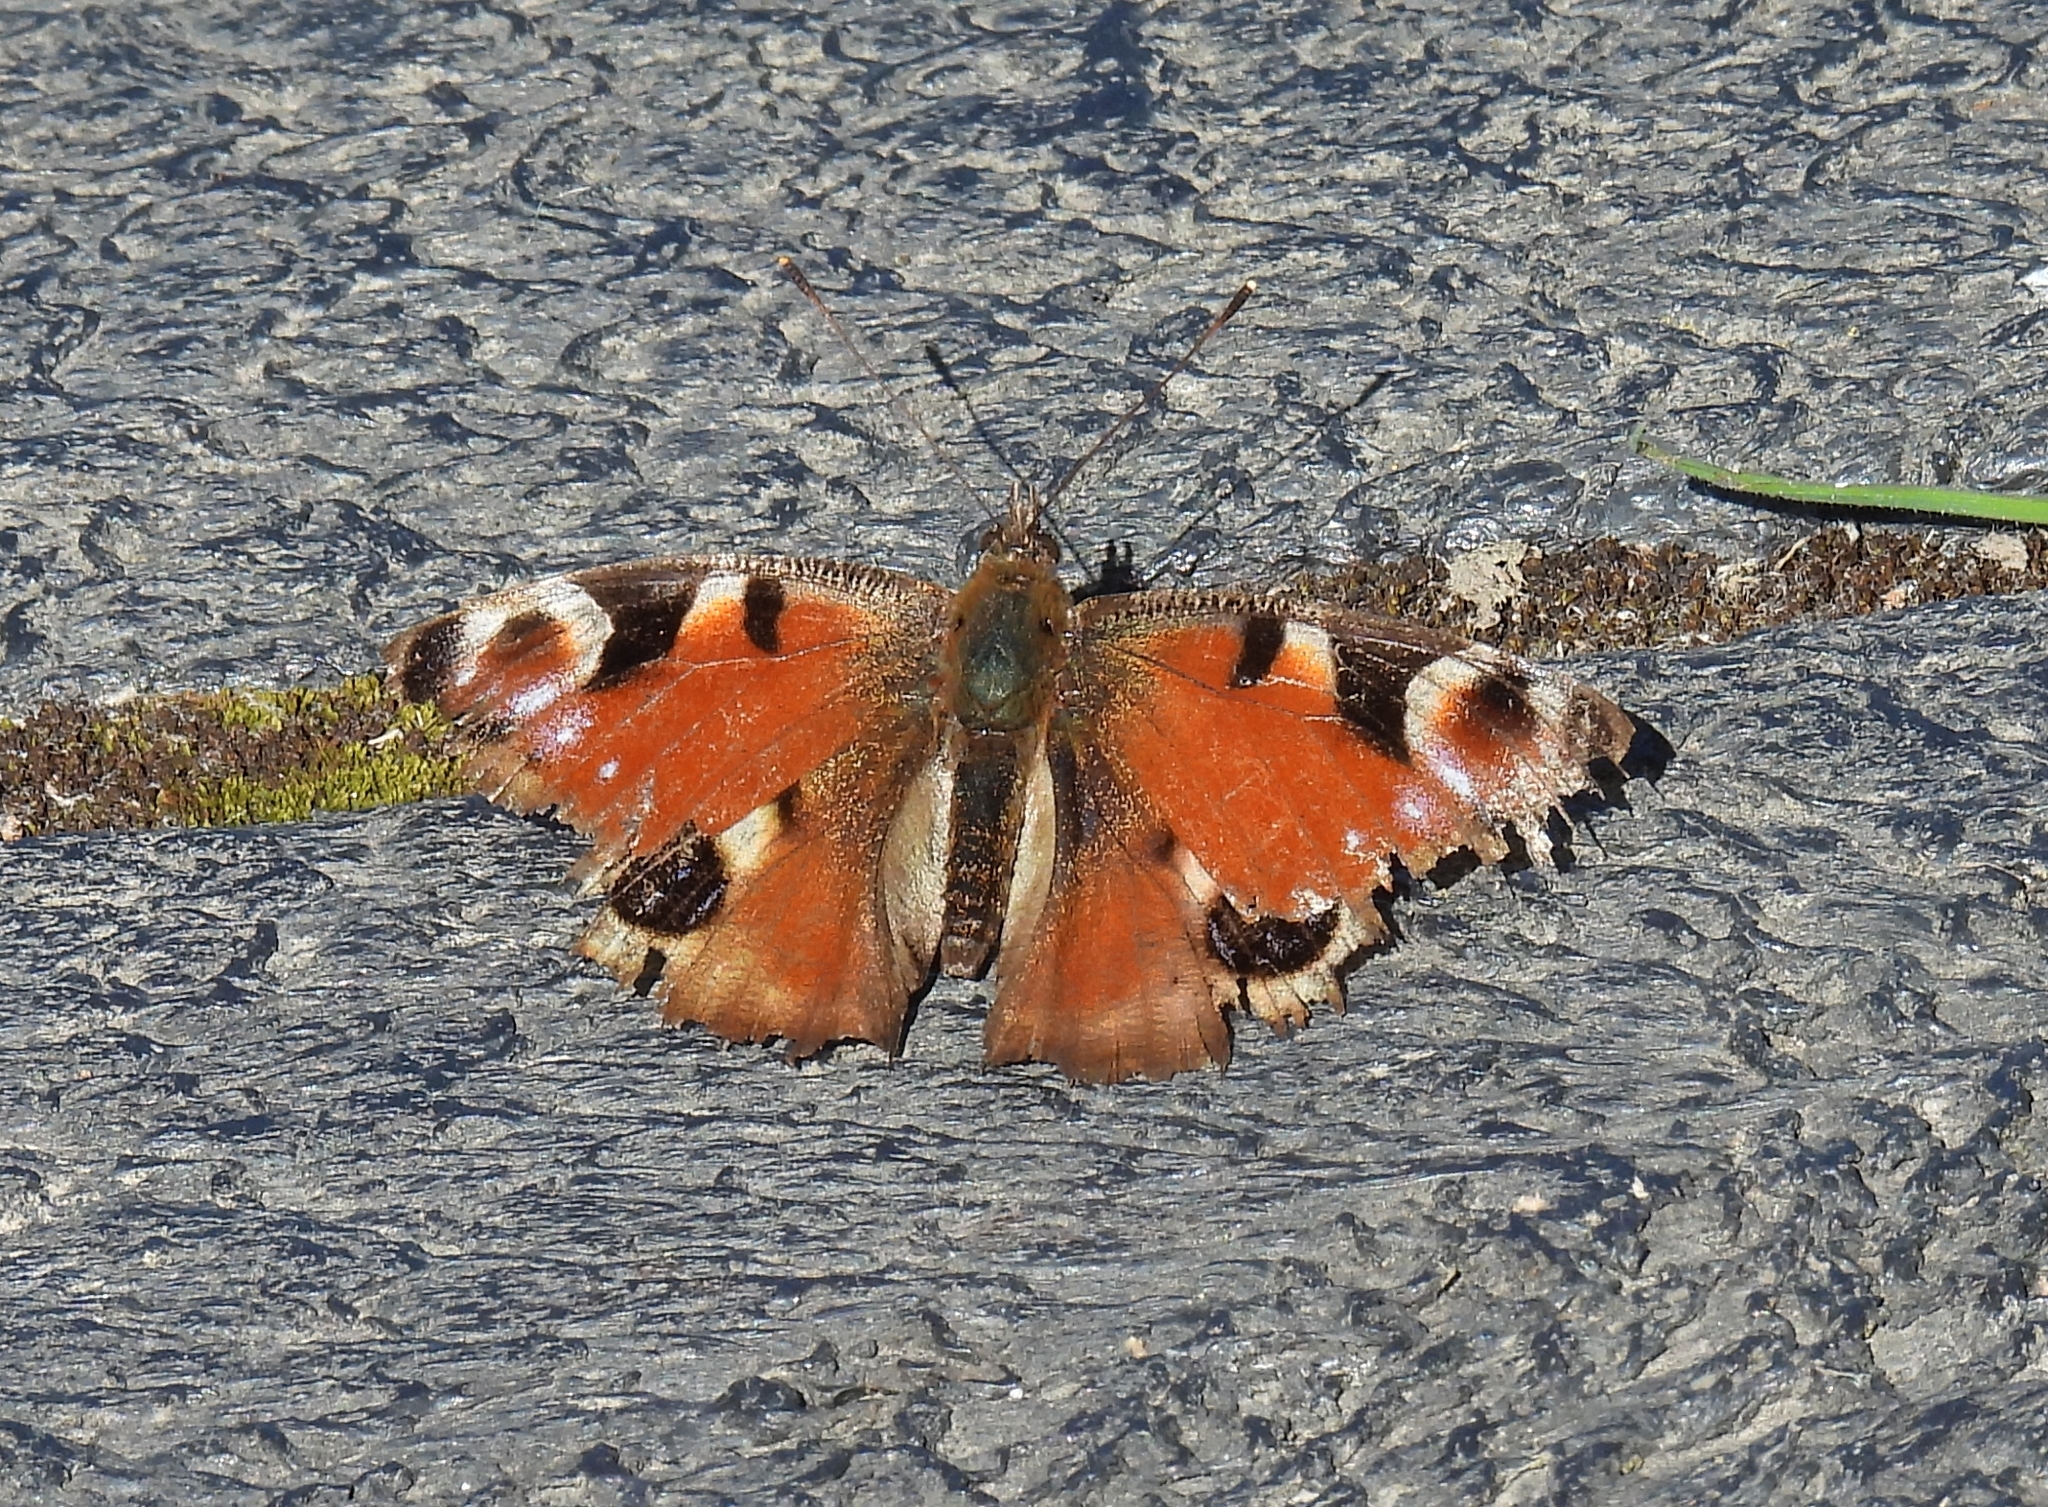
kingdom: Animalia
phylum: Arthropoda
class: Insecta
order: Lepidoptera
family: Nymphalidae
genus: Aglais
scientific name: Aglais io
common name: Peacock
